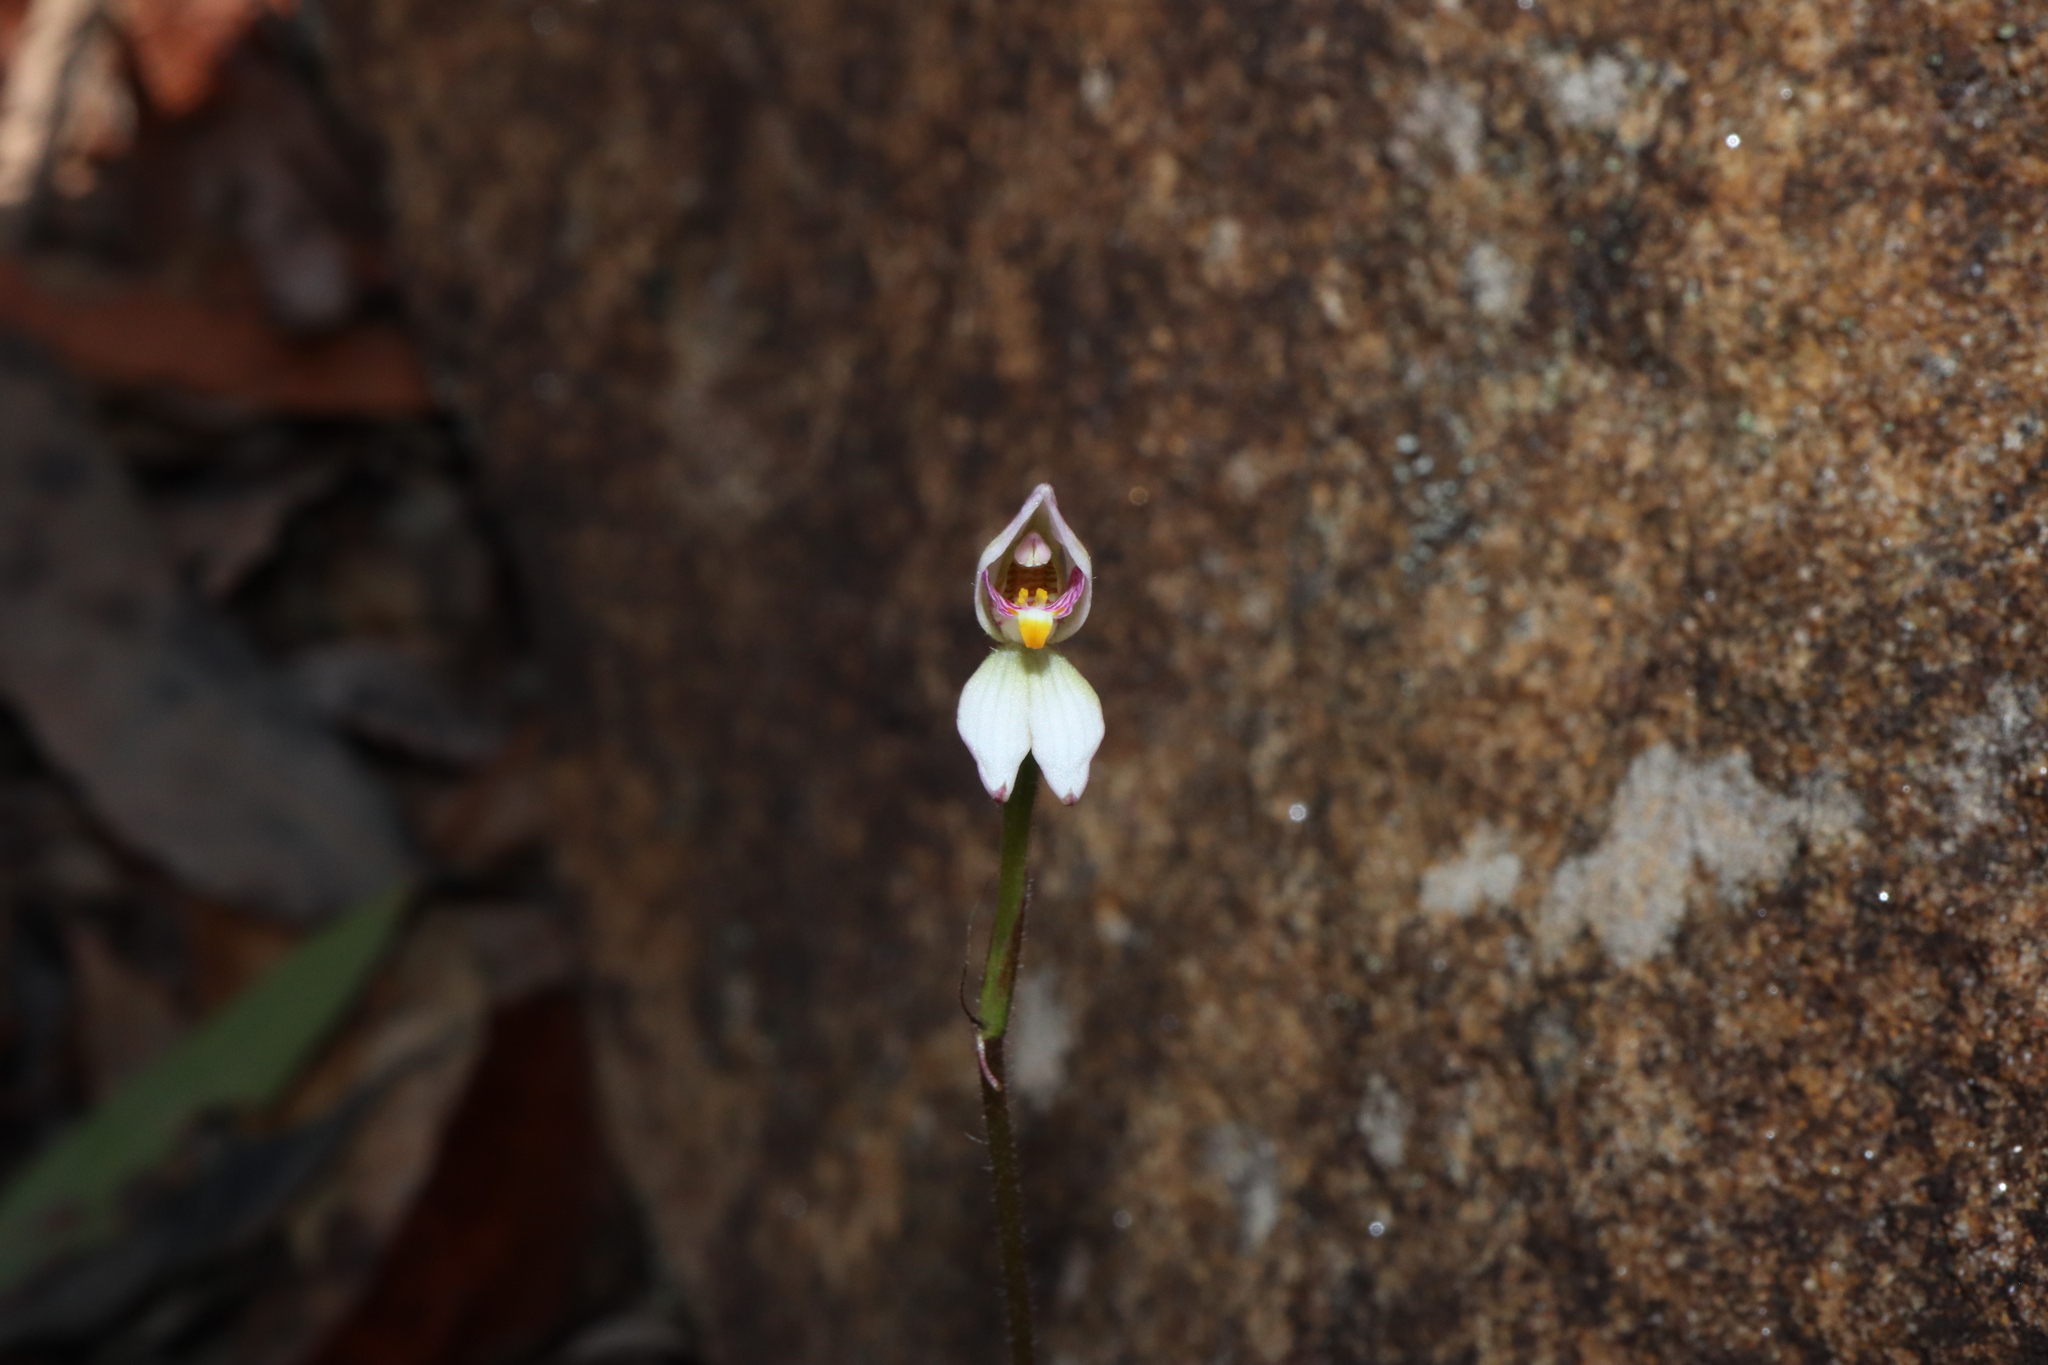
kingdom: Plantae
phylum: Tracheophyta
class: Liliopsida
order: Asparagales
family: Orchidaceae
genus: Caladenia
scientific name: Caladenia alata
